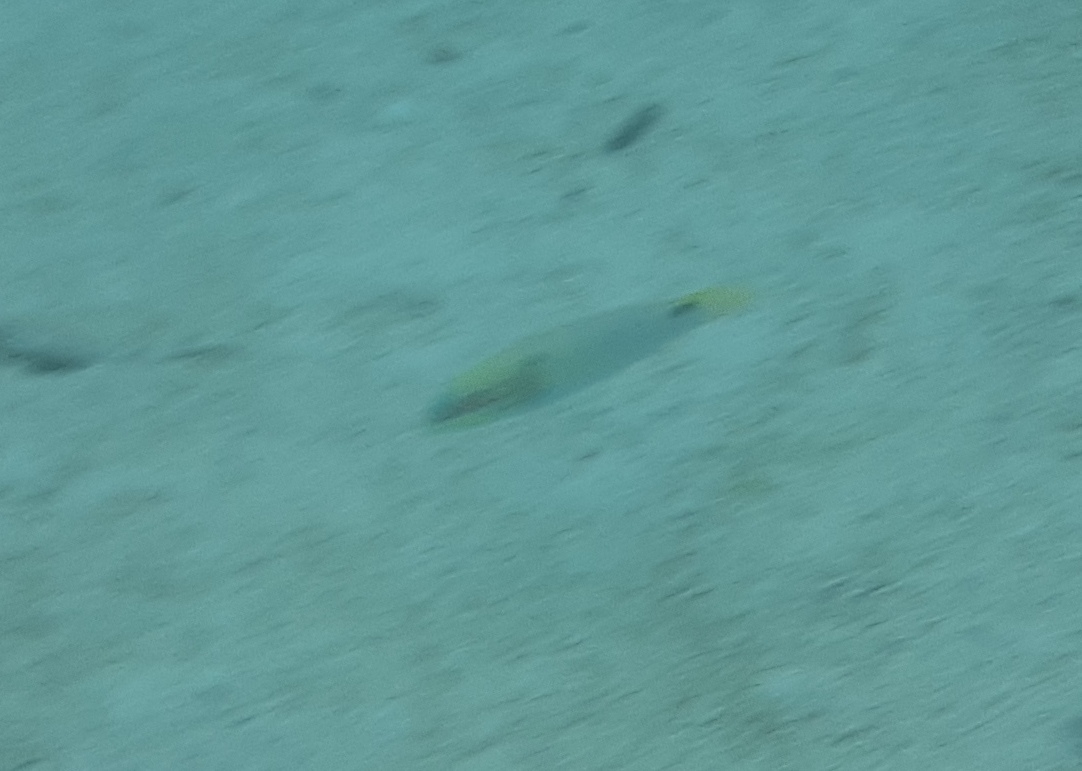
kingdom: Animalia
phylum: Chordata
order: Perciformes
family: Labridae
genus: Halichoeres
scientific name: Halichoeres trimaculatus
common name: Three-spot wrasse
